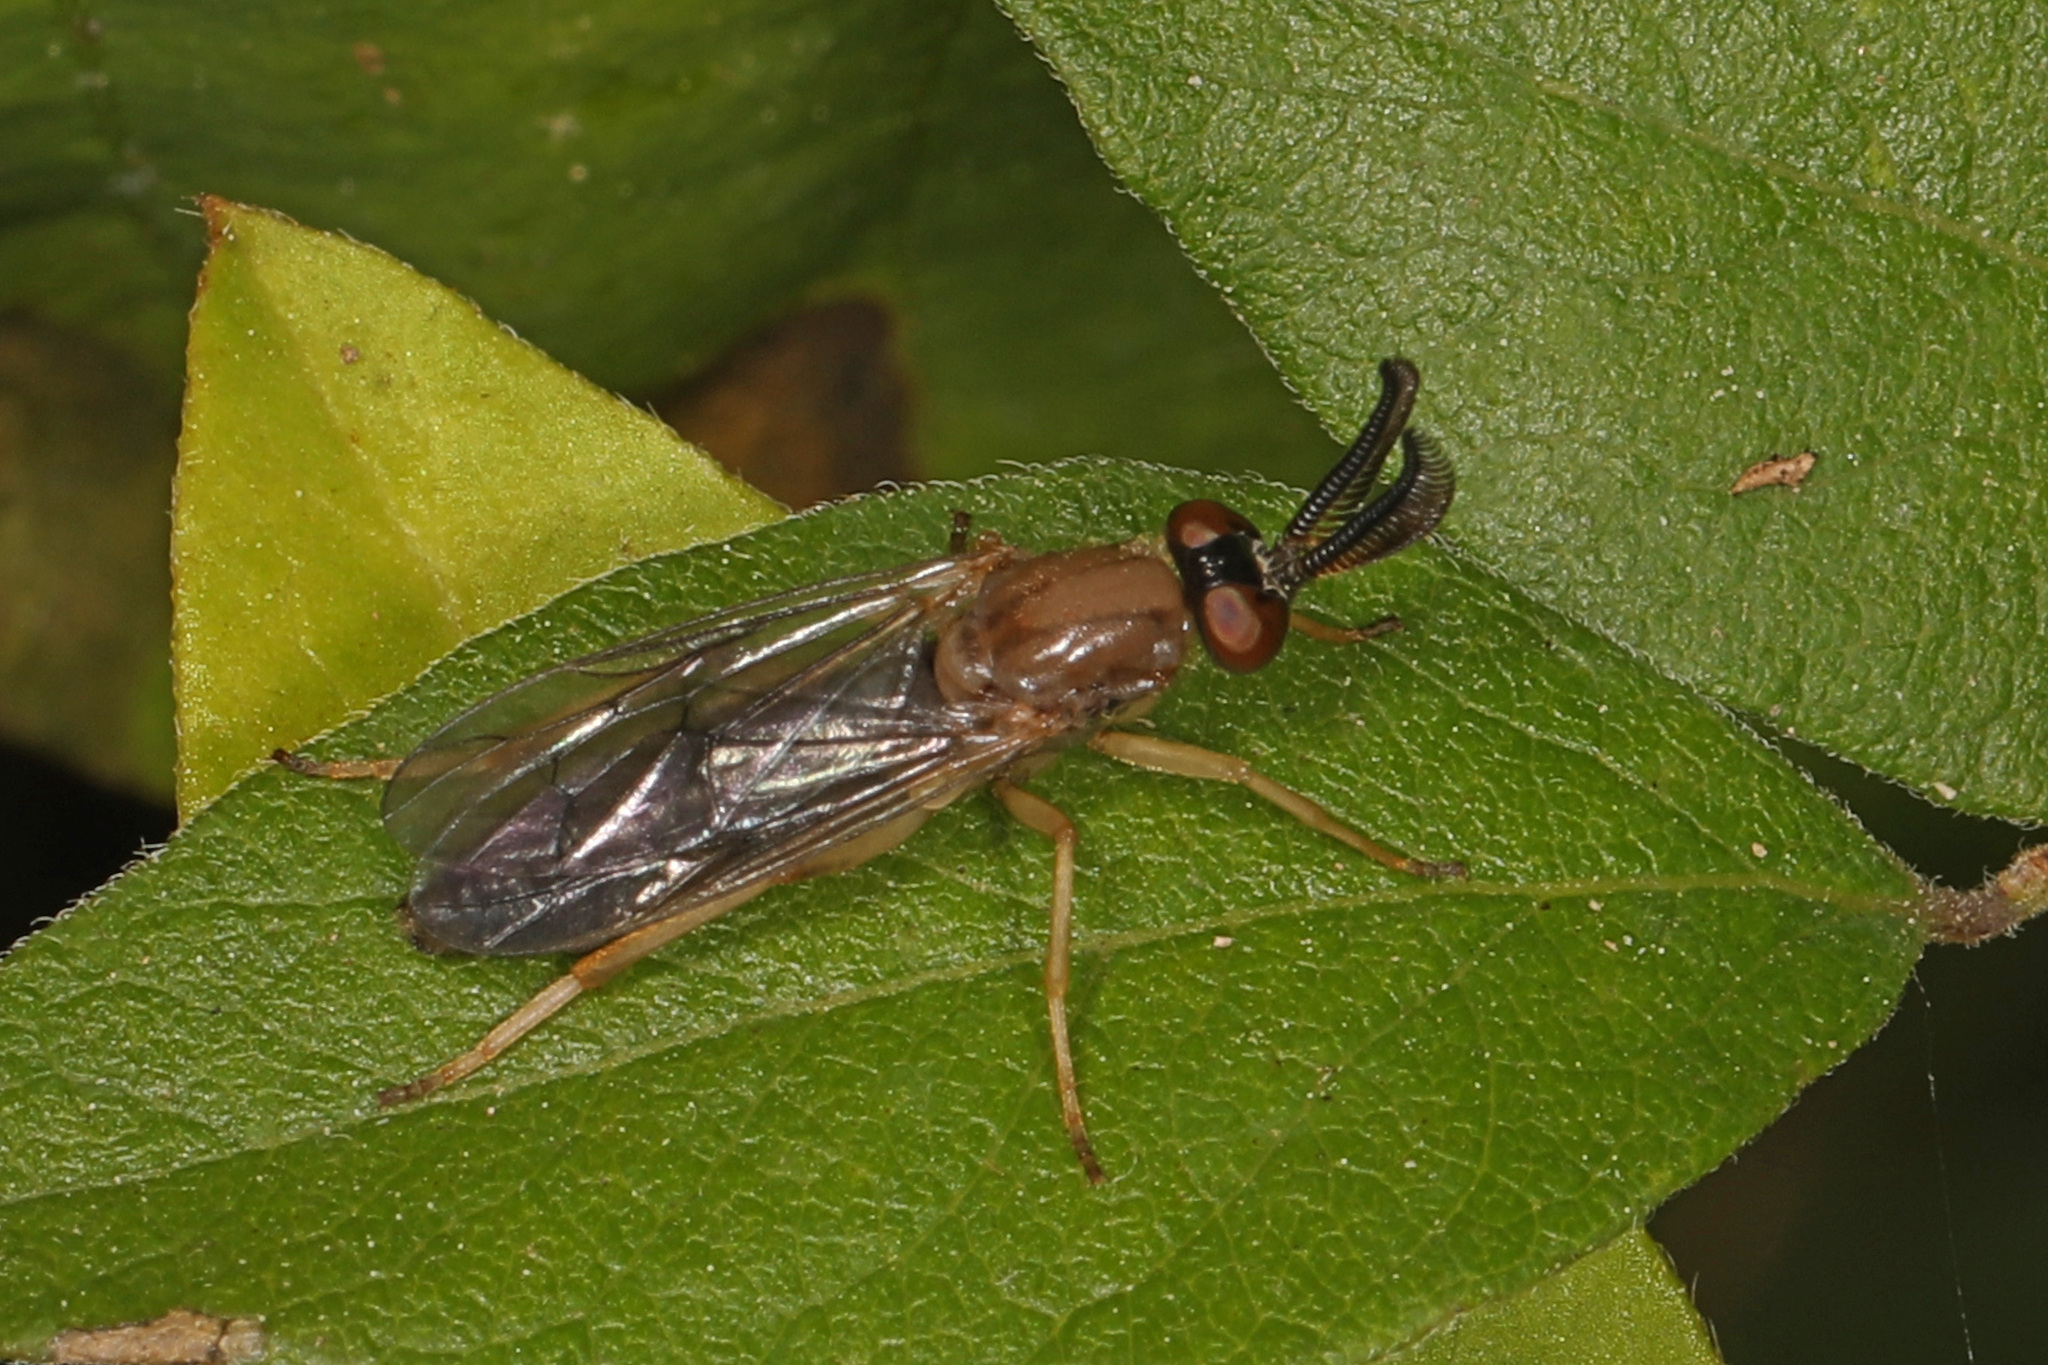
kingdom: Animalia
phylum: Arthropoda
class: Insecta
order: Diptera
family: Xylophagidae
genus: Rachicerus
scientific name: Rachicerus obscuripennis
